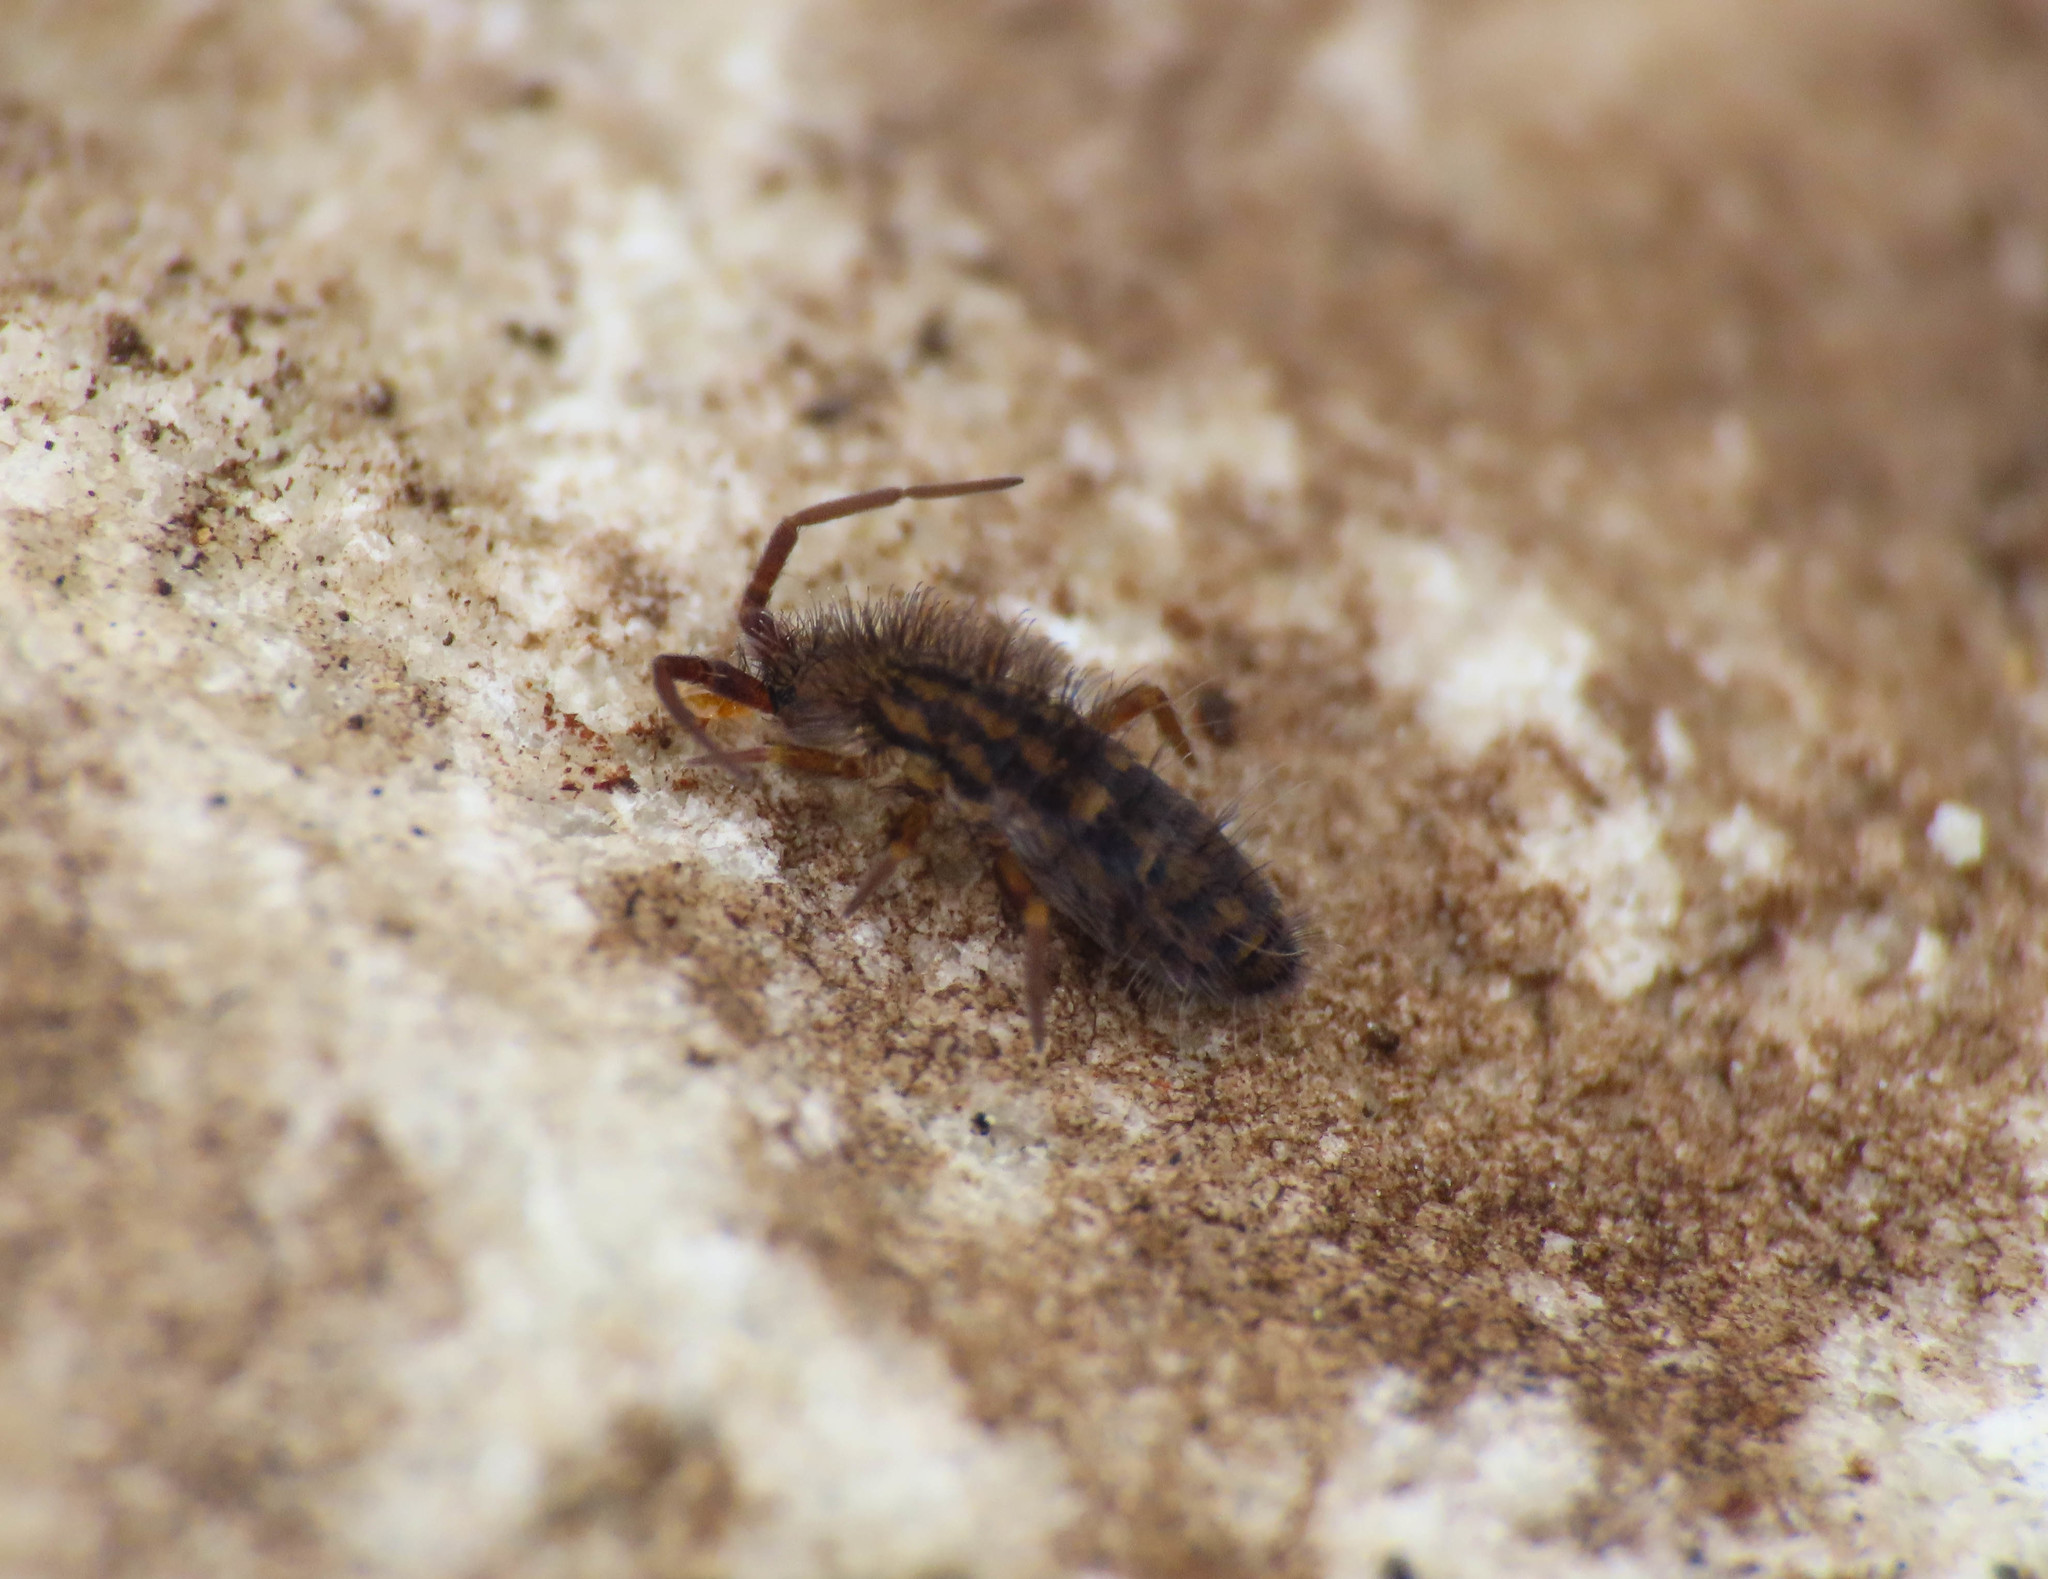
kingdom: Animalia
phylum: Arthropoda
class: Collembola
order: Entomobryomorpha
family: Orchesellidae
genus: Orchesella
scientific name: Orchesella quinquefasciata
